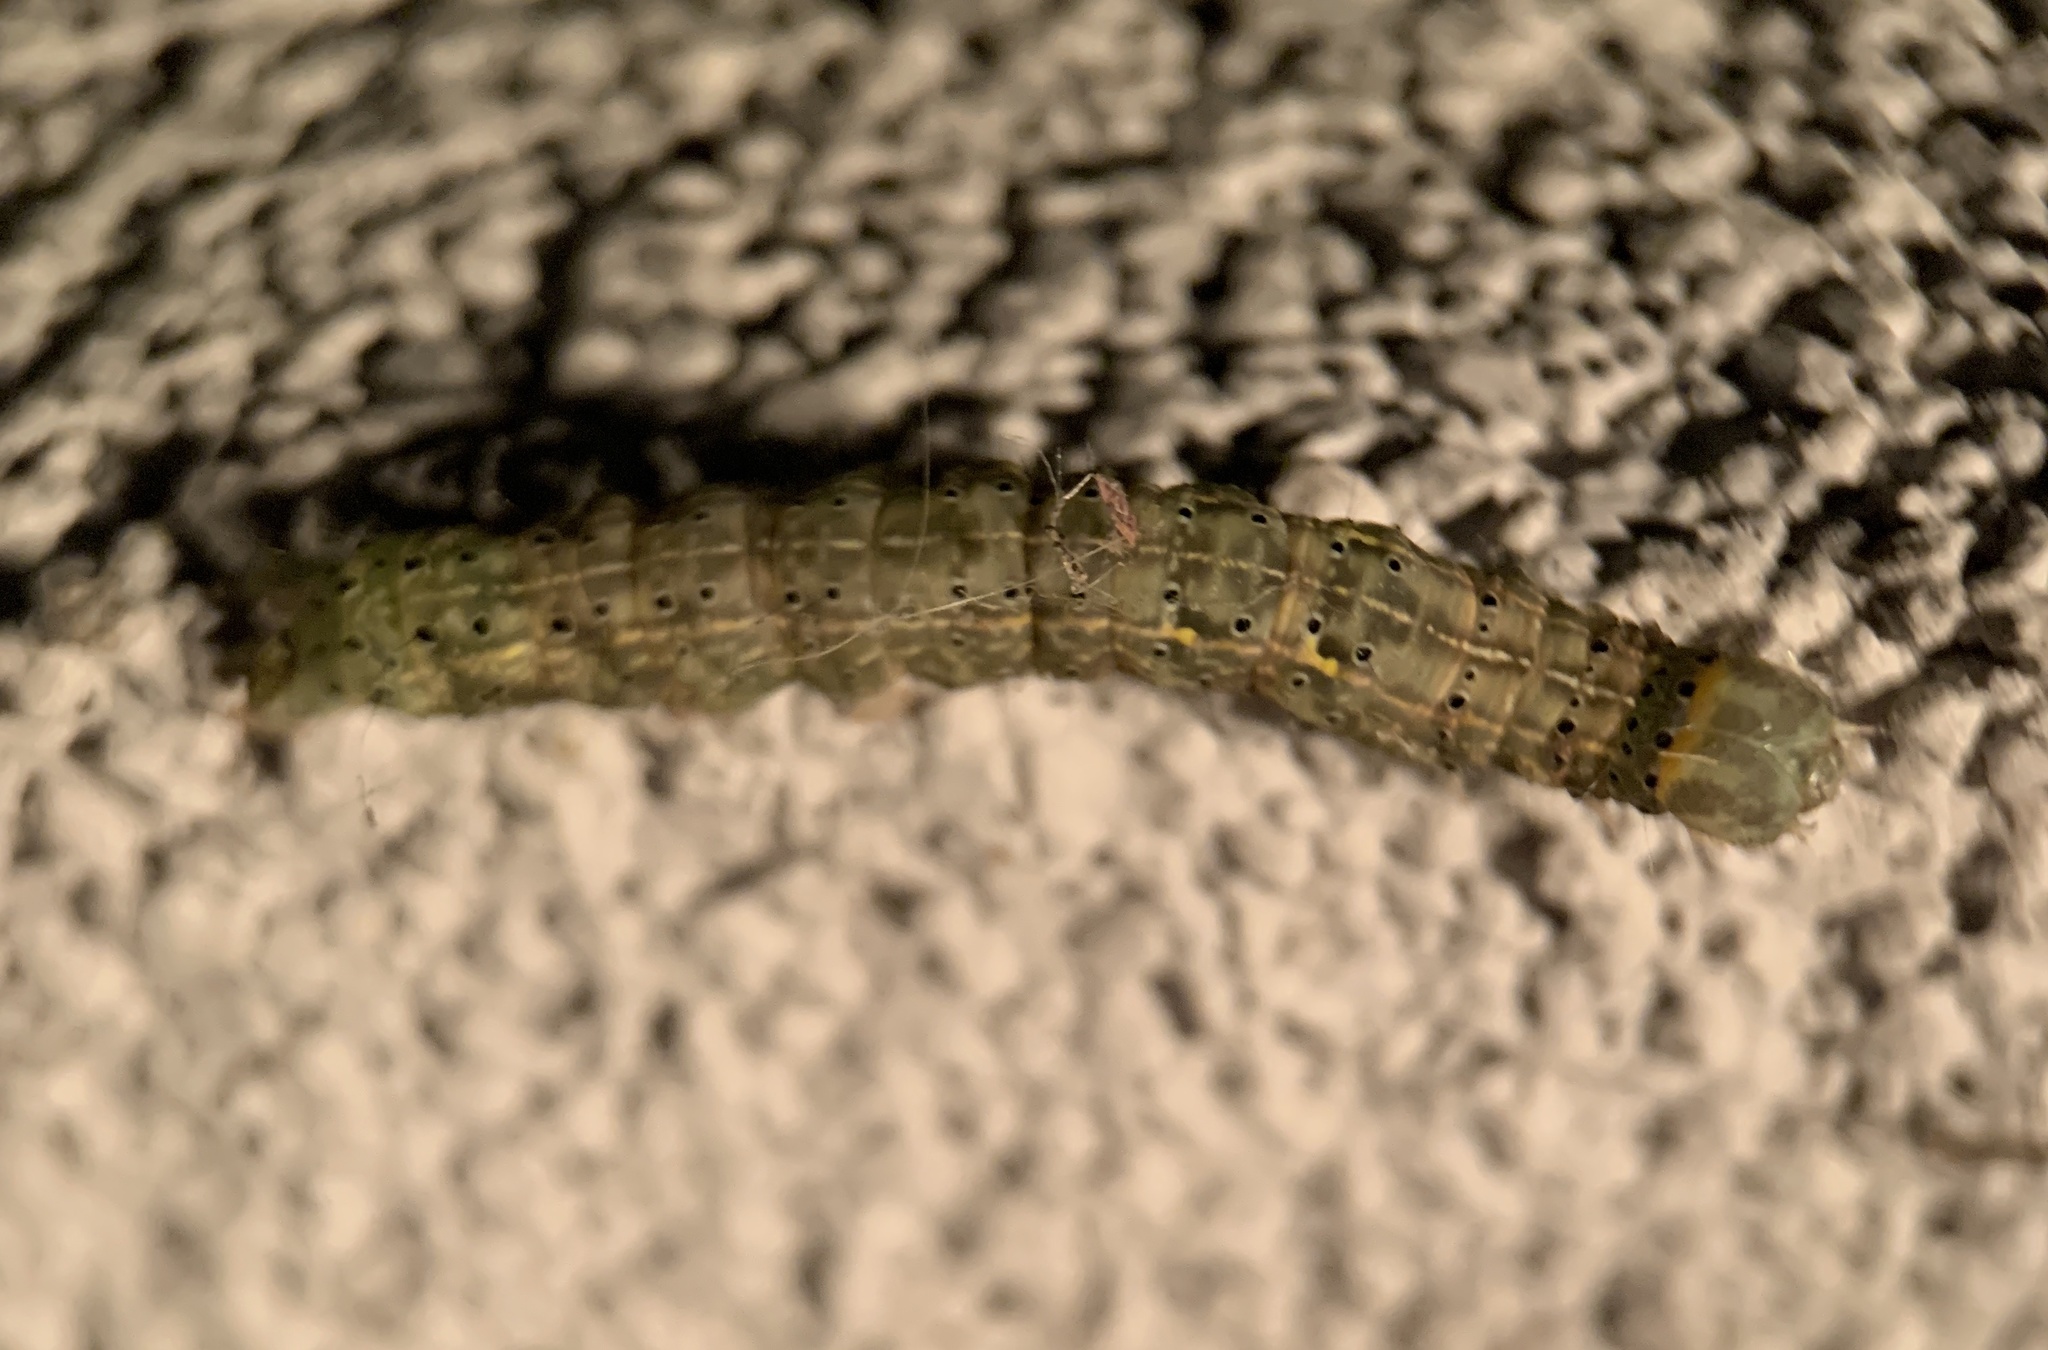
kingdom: Animalia
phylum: Arthropoda
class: Insecta
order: Lepidoptera
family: Erebidae
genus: Rusicada
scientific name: Rusicada privata
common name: Hibiscus leaf caterpillar moth
